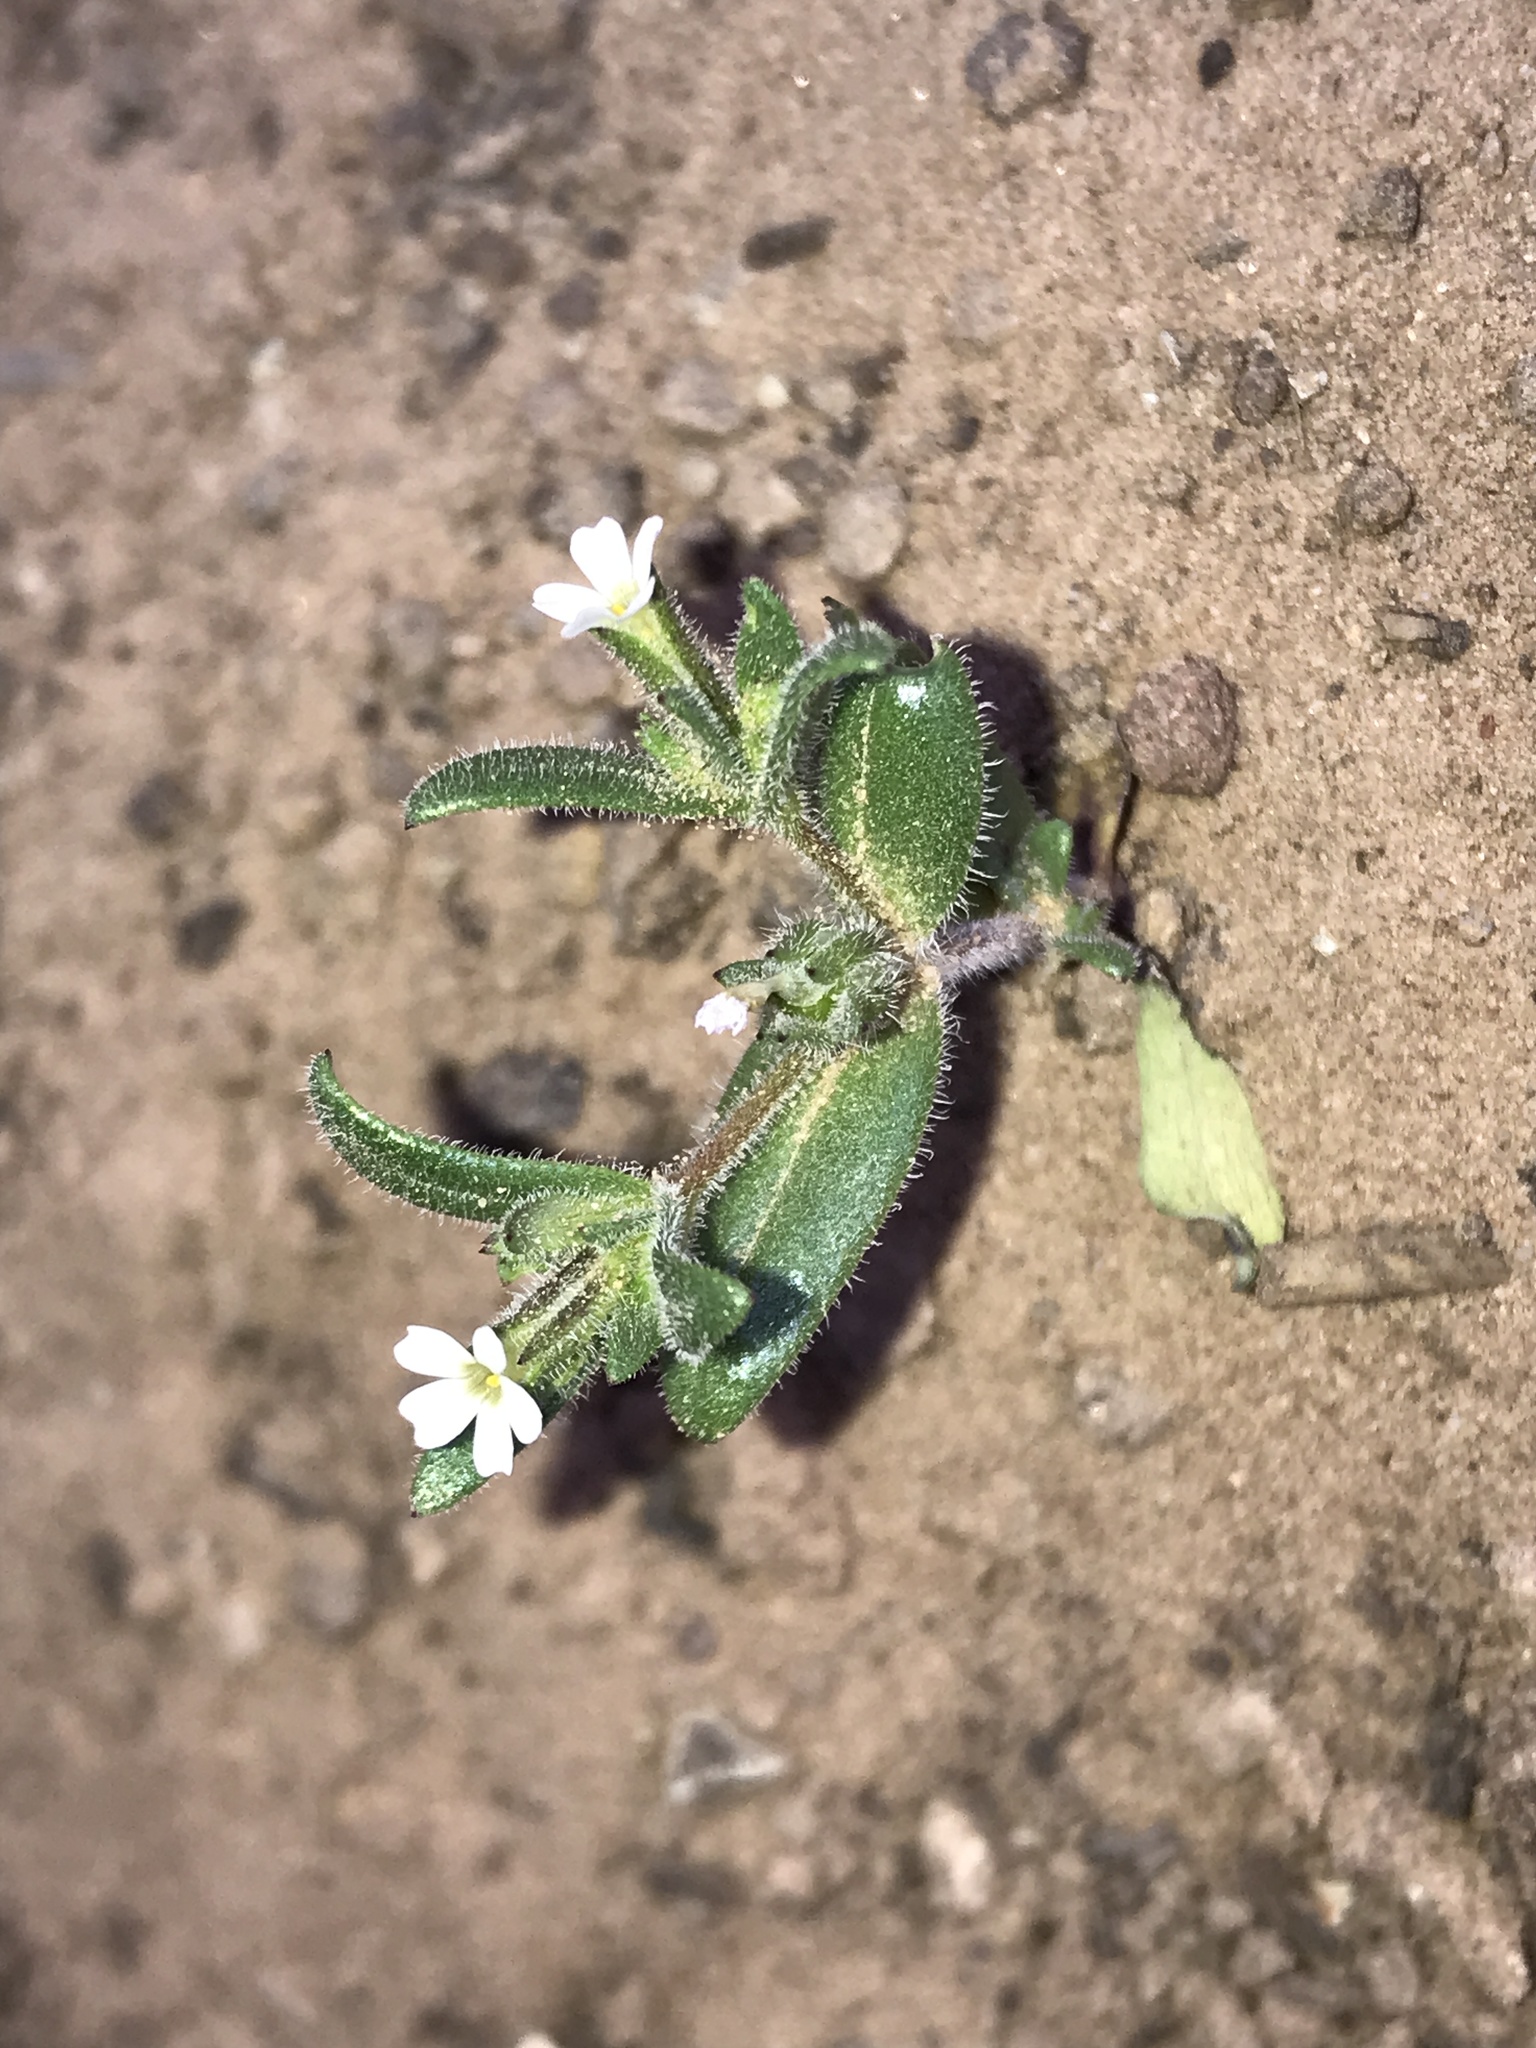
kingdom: Plantae
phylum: Tracheophyta
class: Magnoliopsida
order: Ericales
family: Polemoniaceae
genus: Phlox
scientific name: Phlox gracilis
